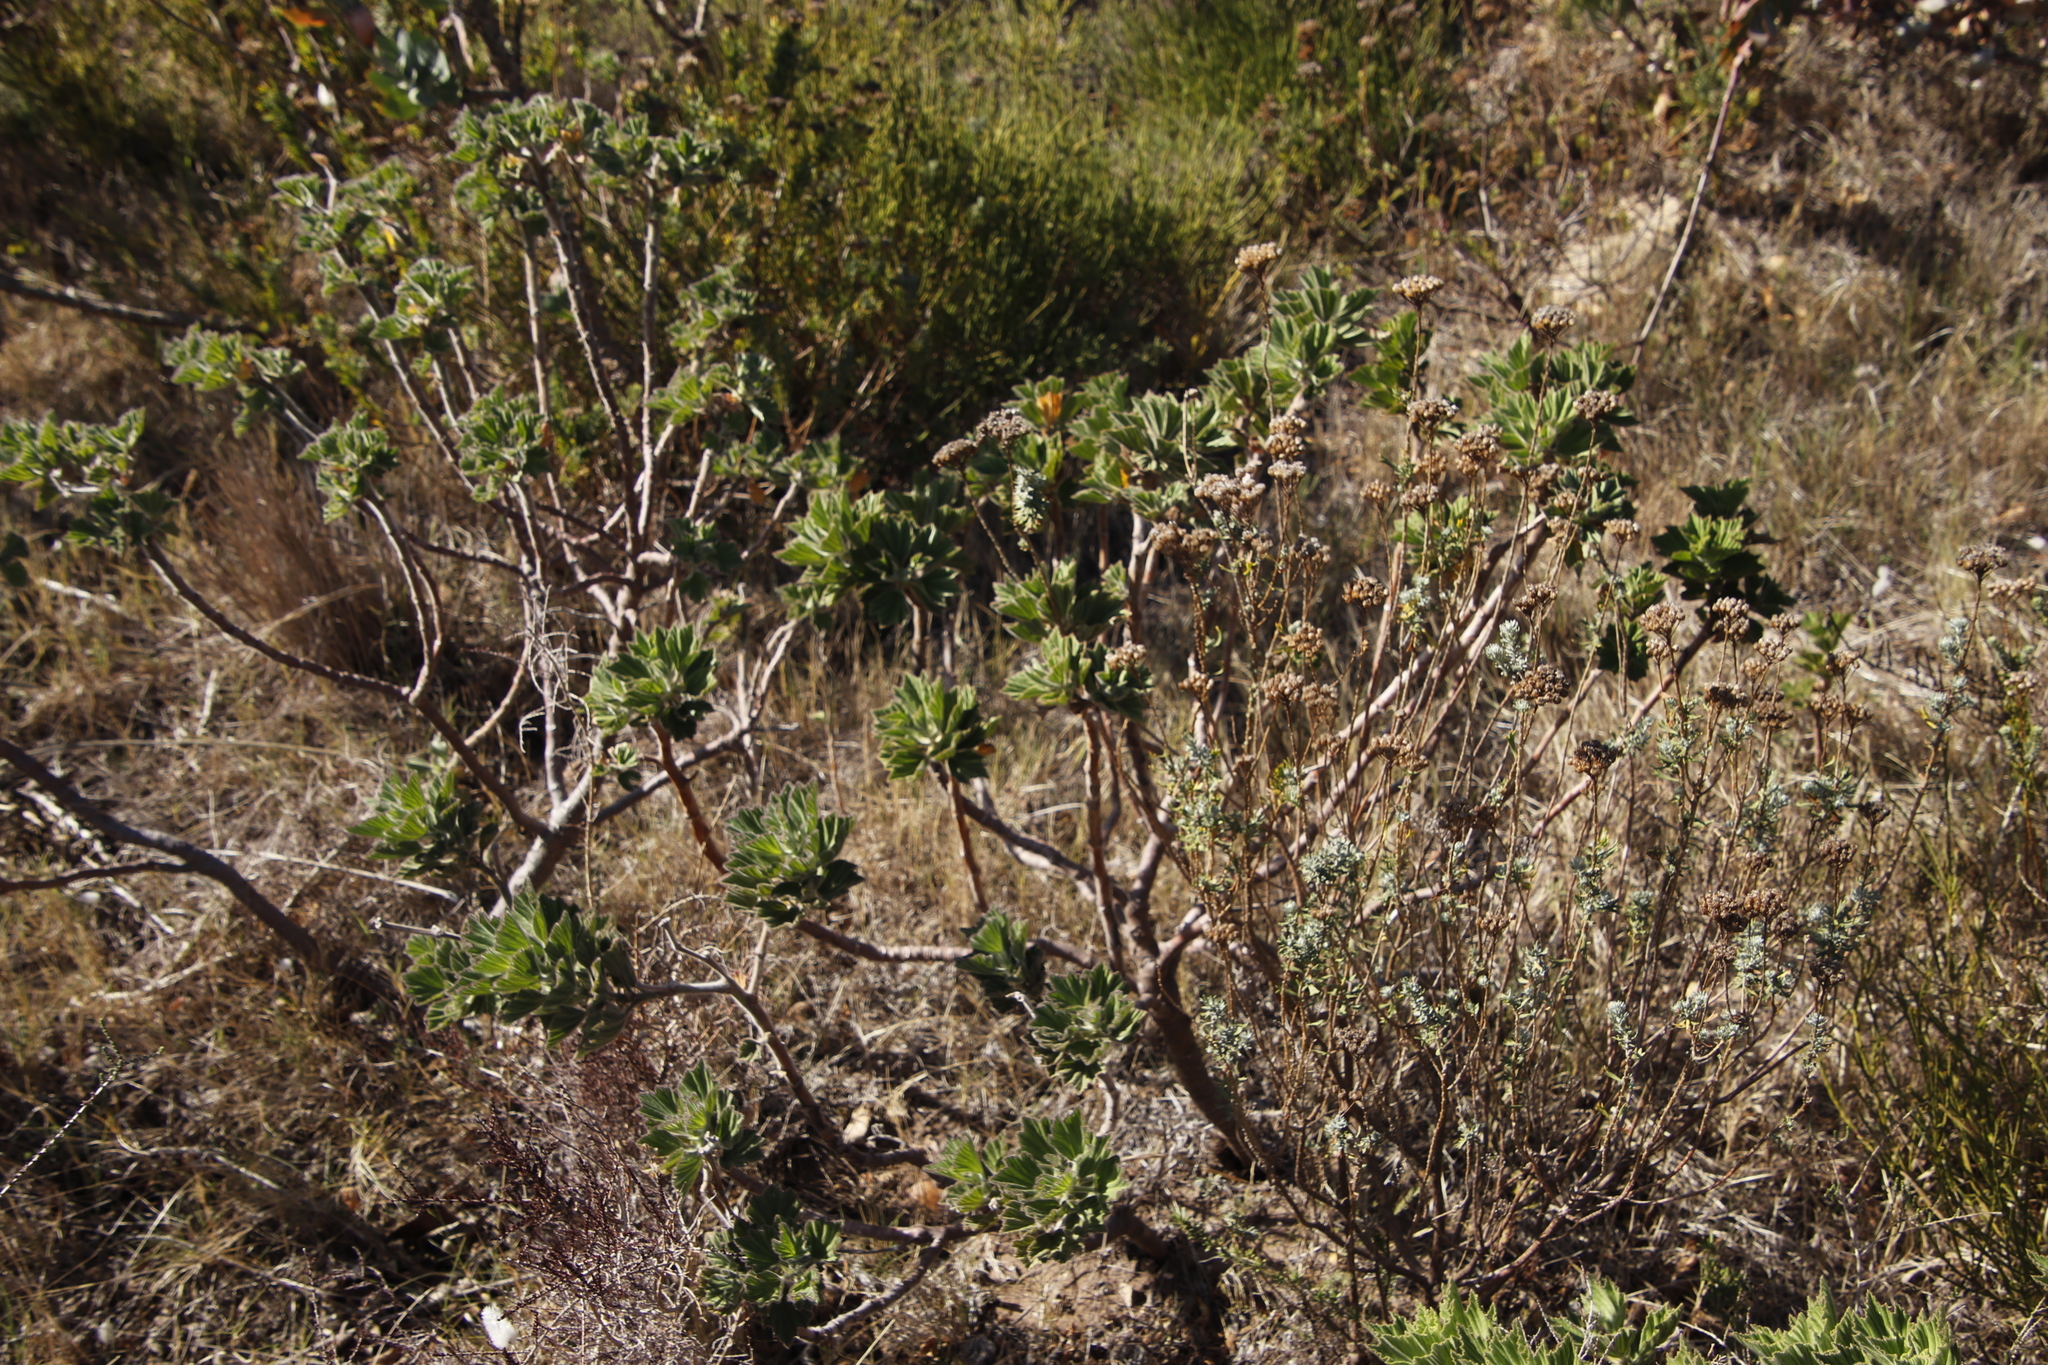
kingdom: Plantae
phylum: Tracheophyta
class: Magnoliopsida
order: Geraniales
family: Geraniaceae
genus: Pelargonium
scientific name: Pelargonium cucullatum
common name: Tree pelargonium
